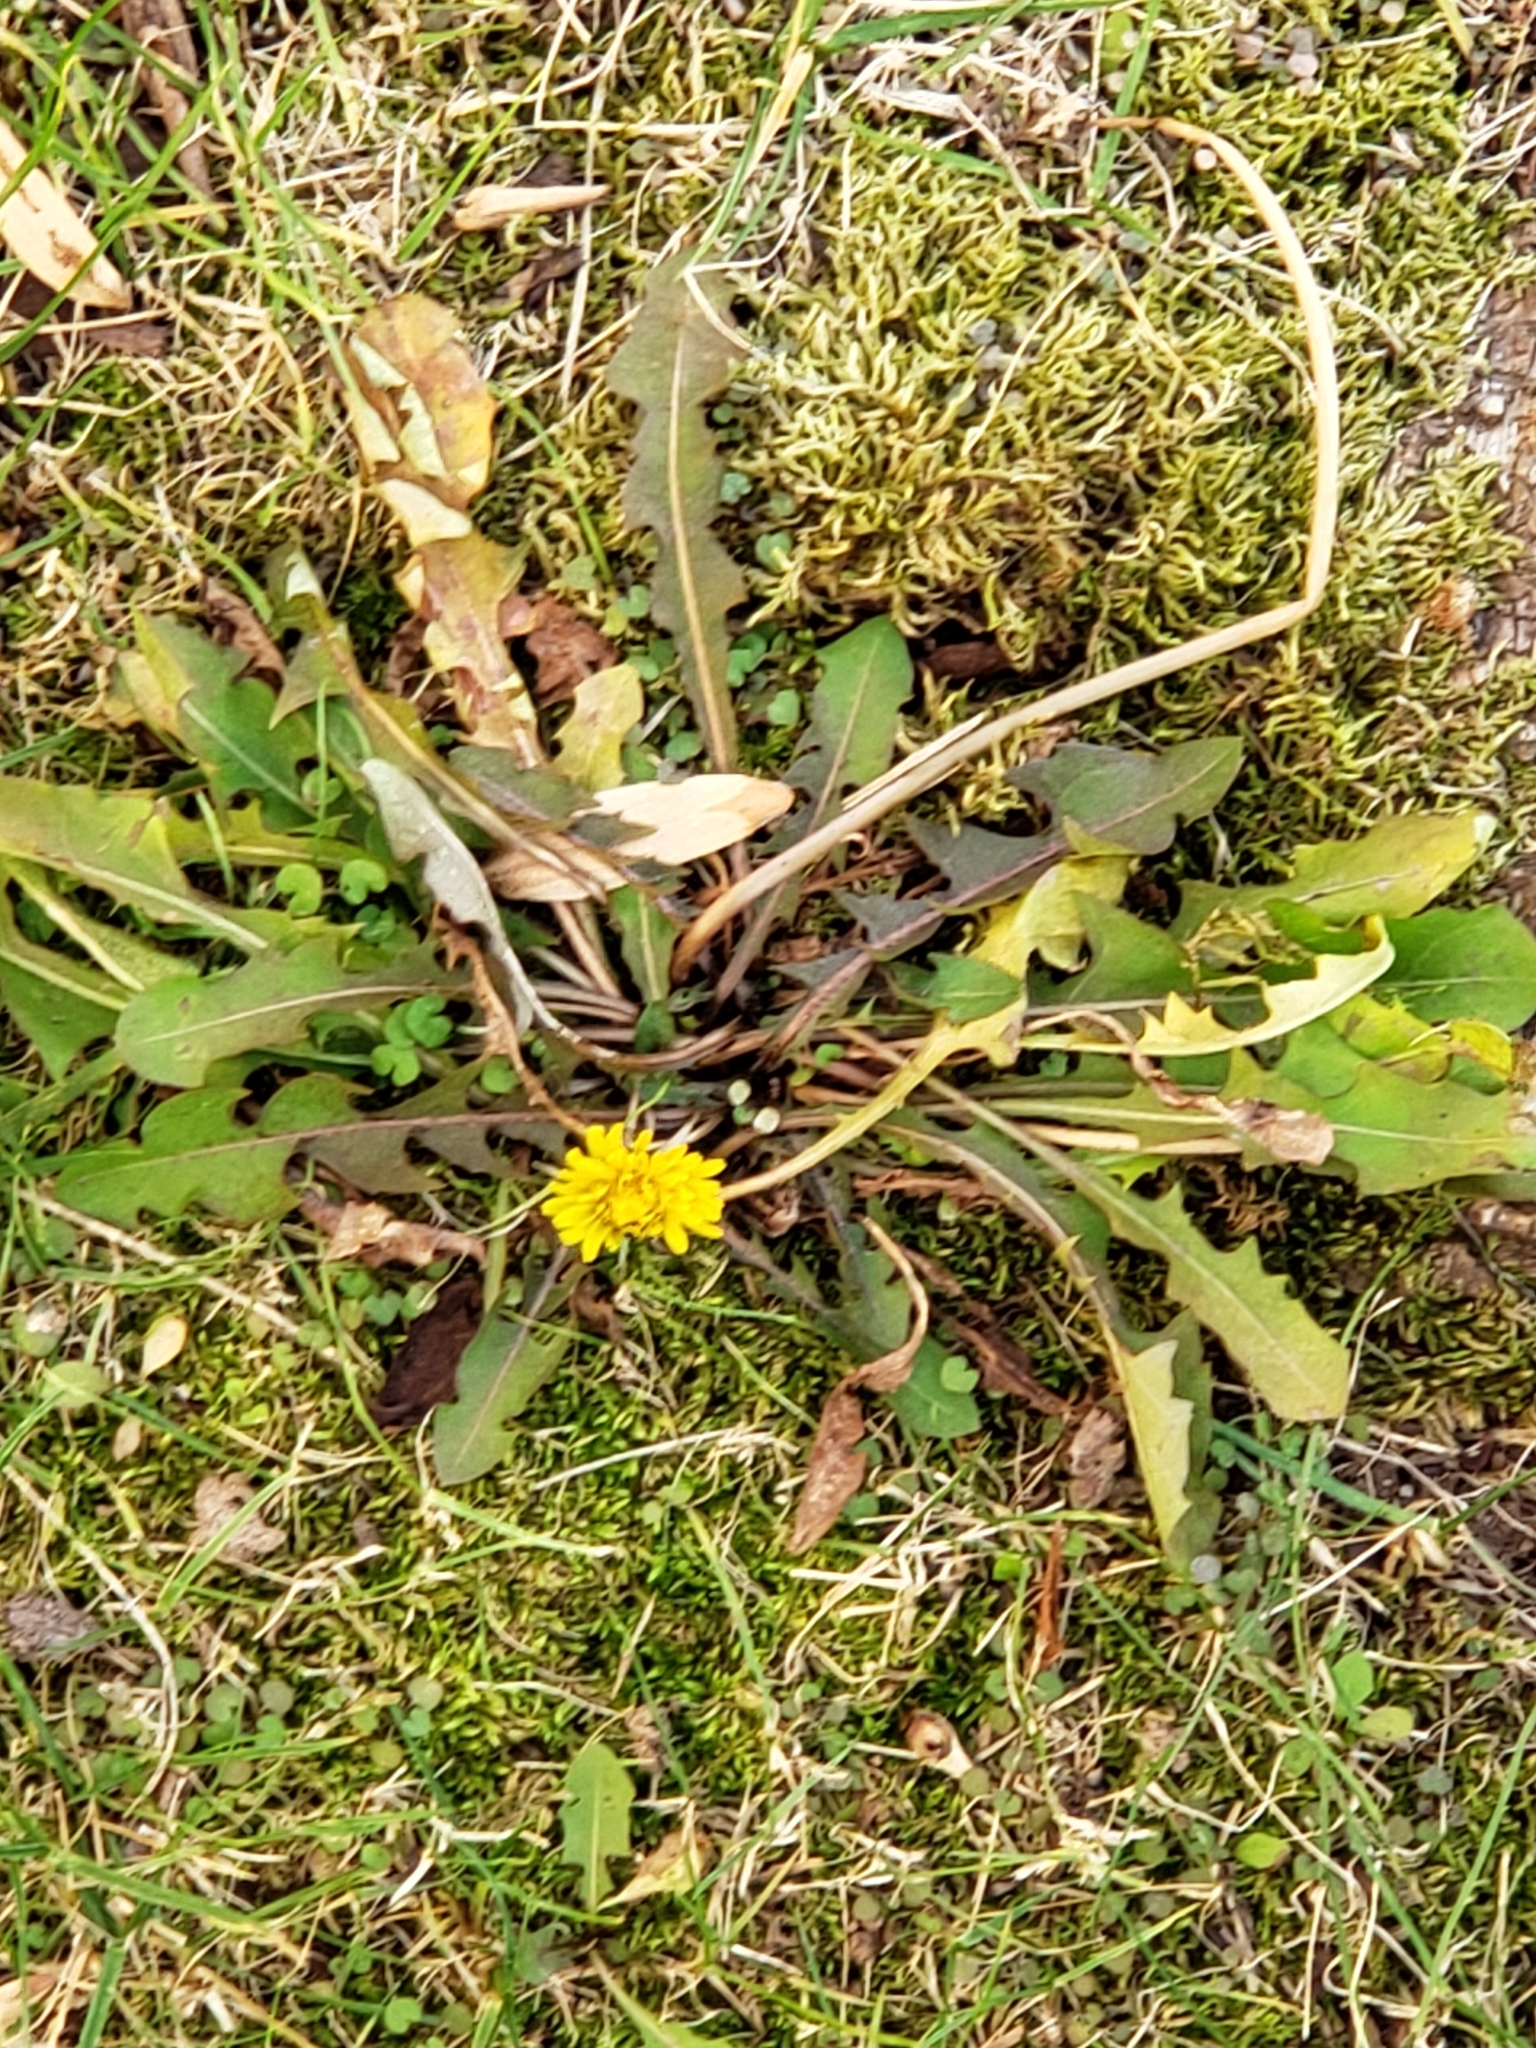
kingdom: Plantae
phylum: Tracheophyta
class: Magnoliopsida
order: Asterales
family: Asteraceae
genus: Taraxacum
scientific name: Taraxacum officinale
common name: Common dandelion
